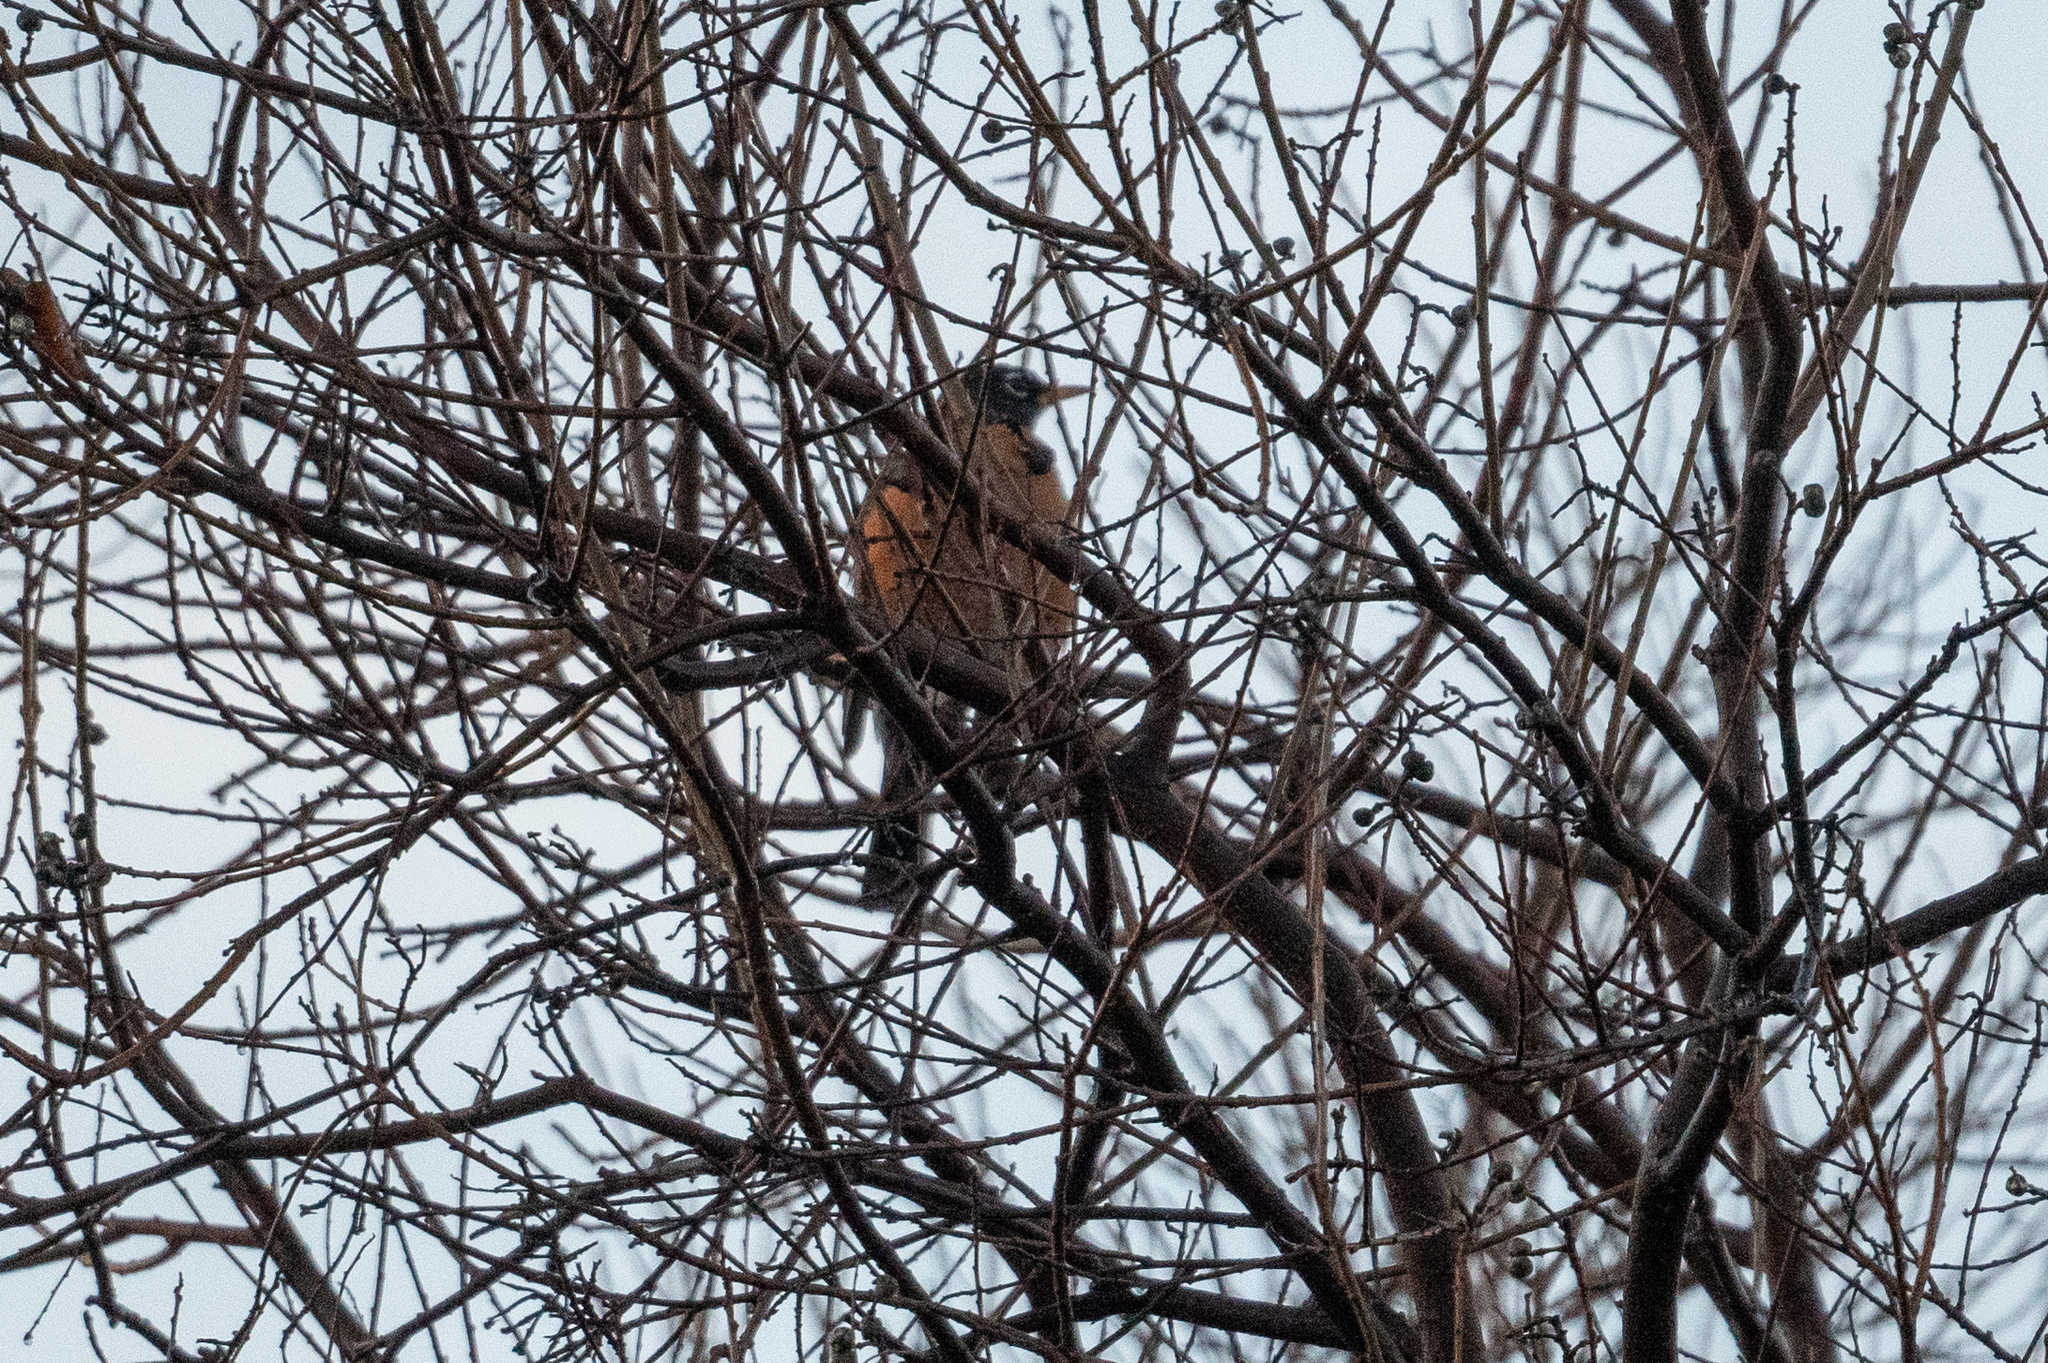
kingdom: Animalia
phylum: Chordata
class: Aves
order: Passeriformes
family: Turdidae
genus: Turdus
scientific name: Turdus migratorius
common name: American robin
